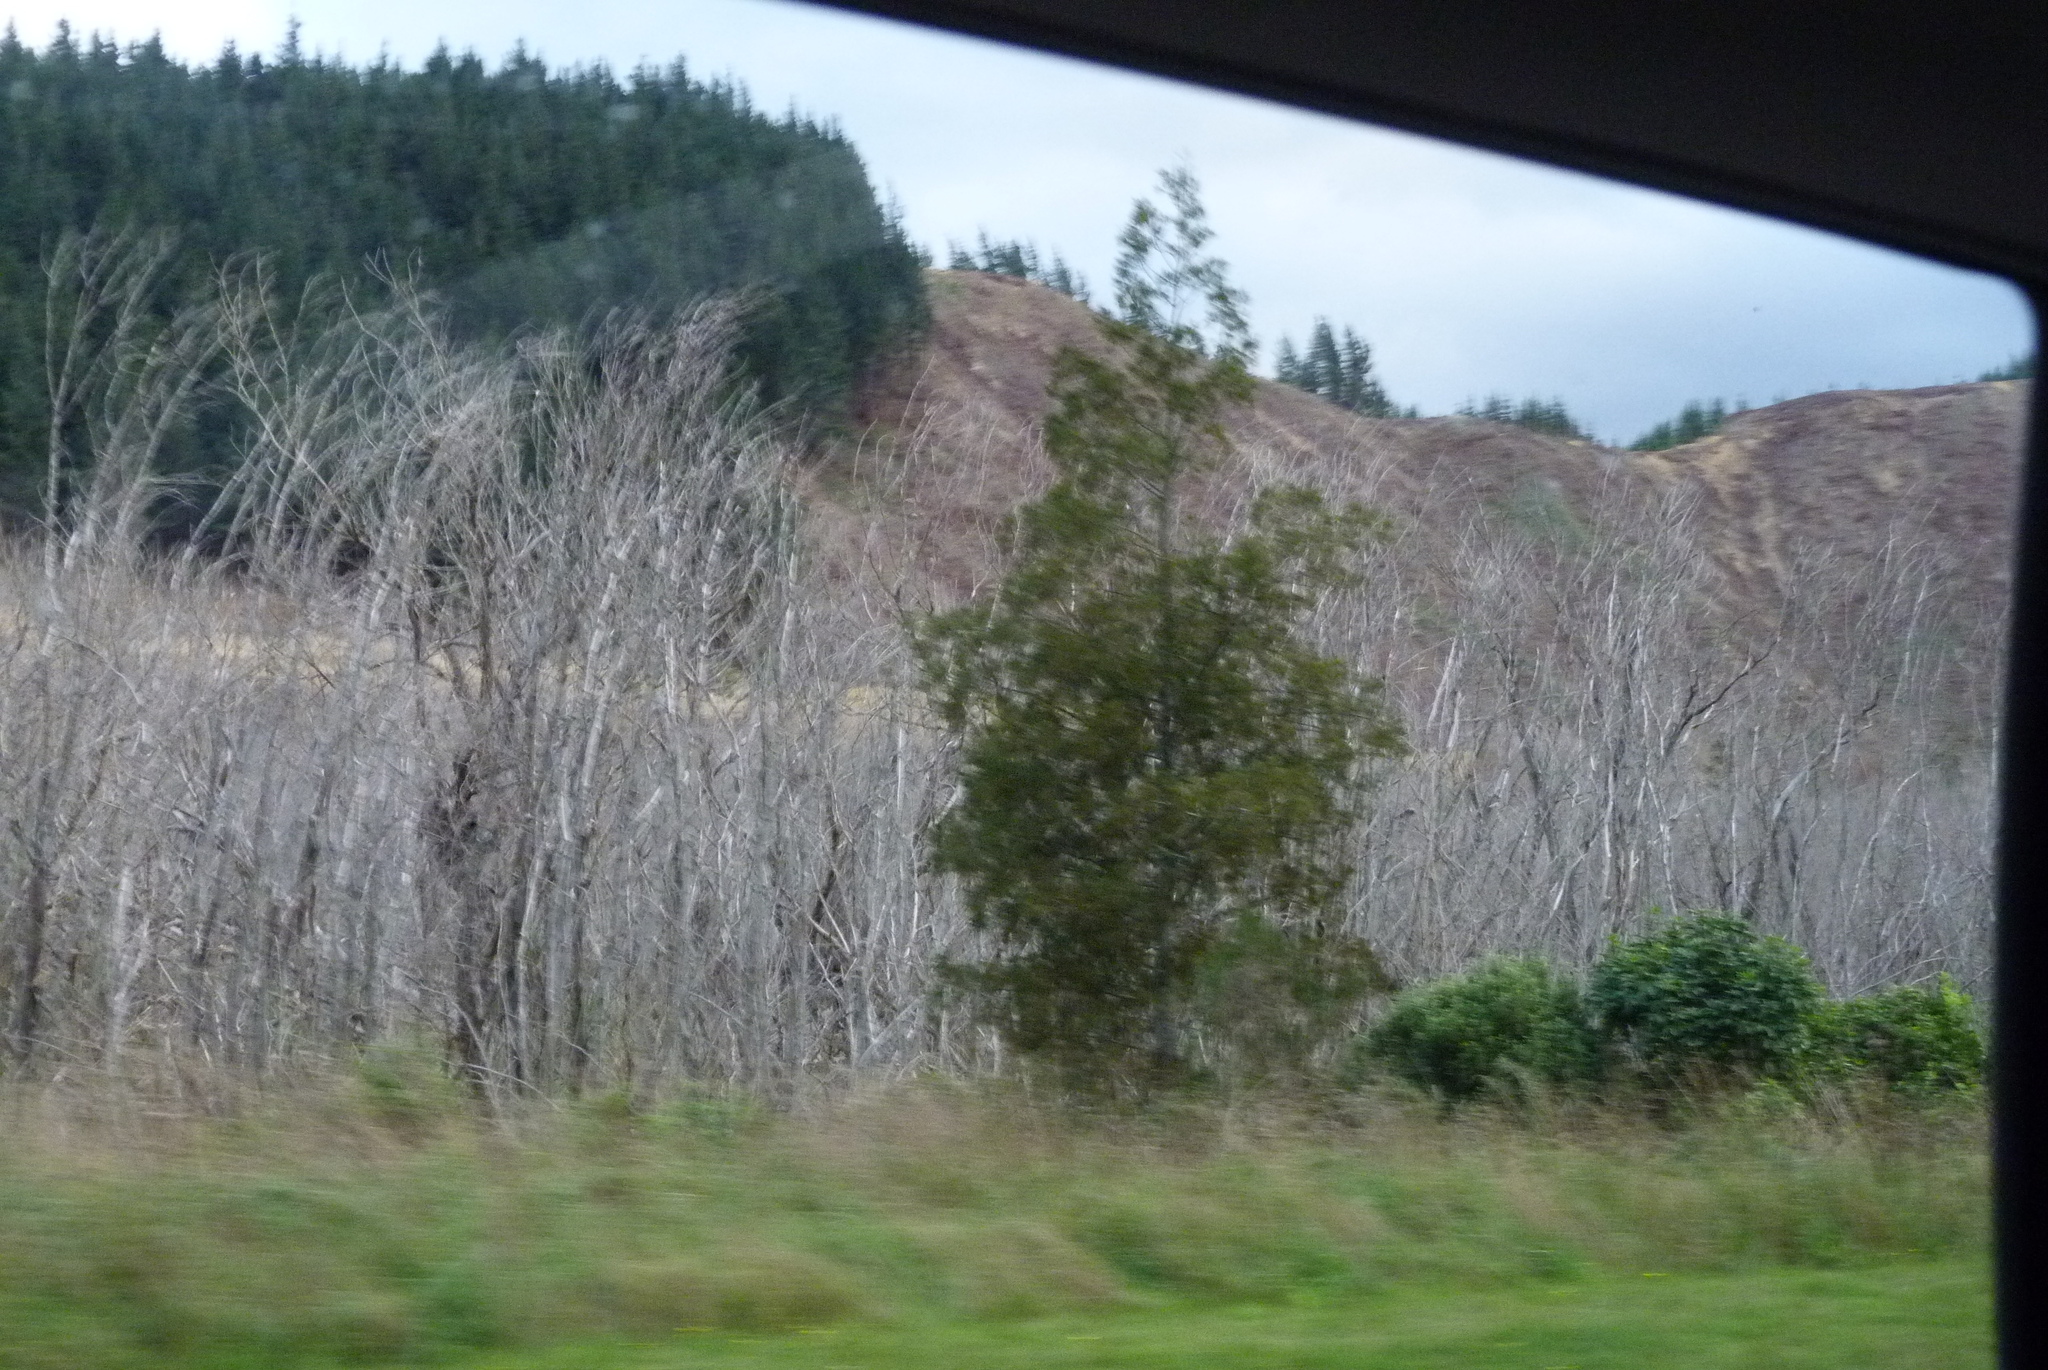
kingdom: Plantae
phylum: Tracheophyta
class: Pinopsida
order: Pinales
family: Podocarpaceae
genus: Dacrycarpus
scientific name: Dacrycarpus dacrydioides
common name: White pine
